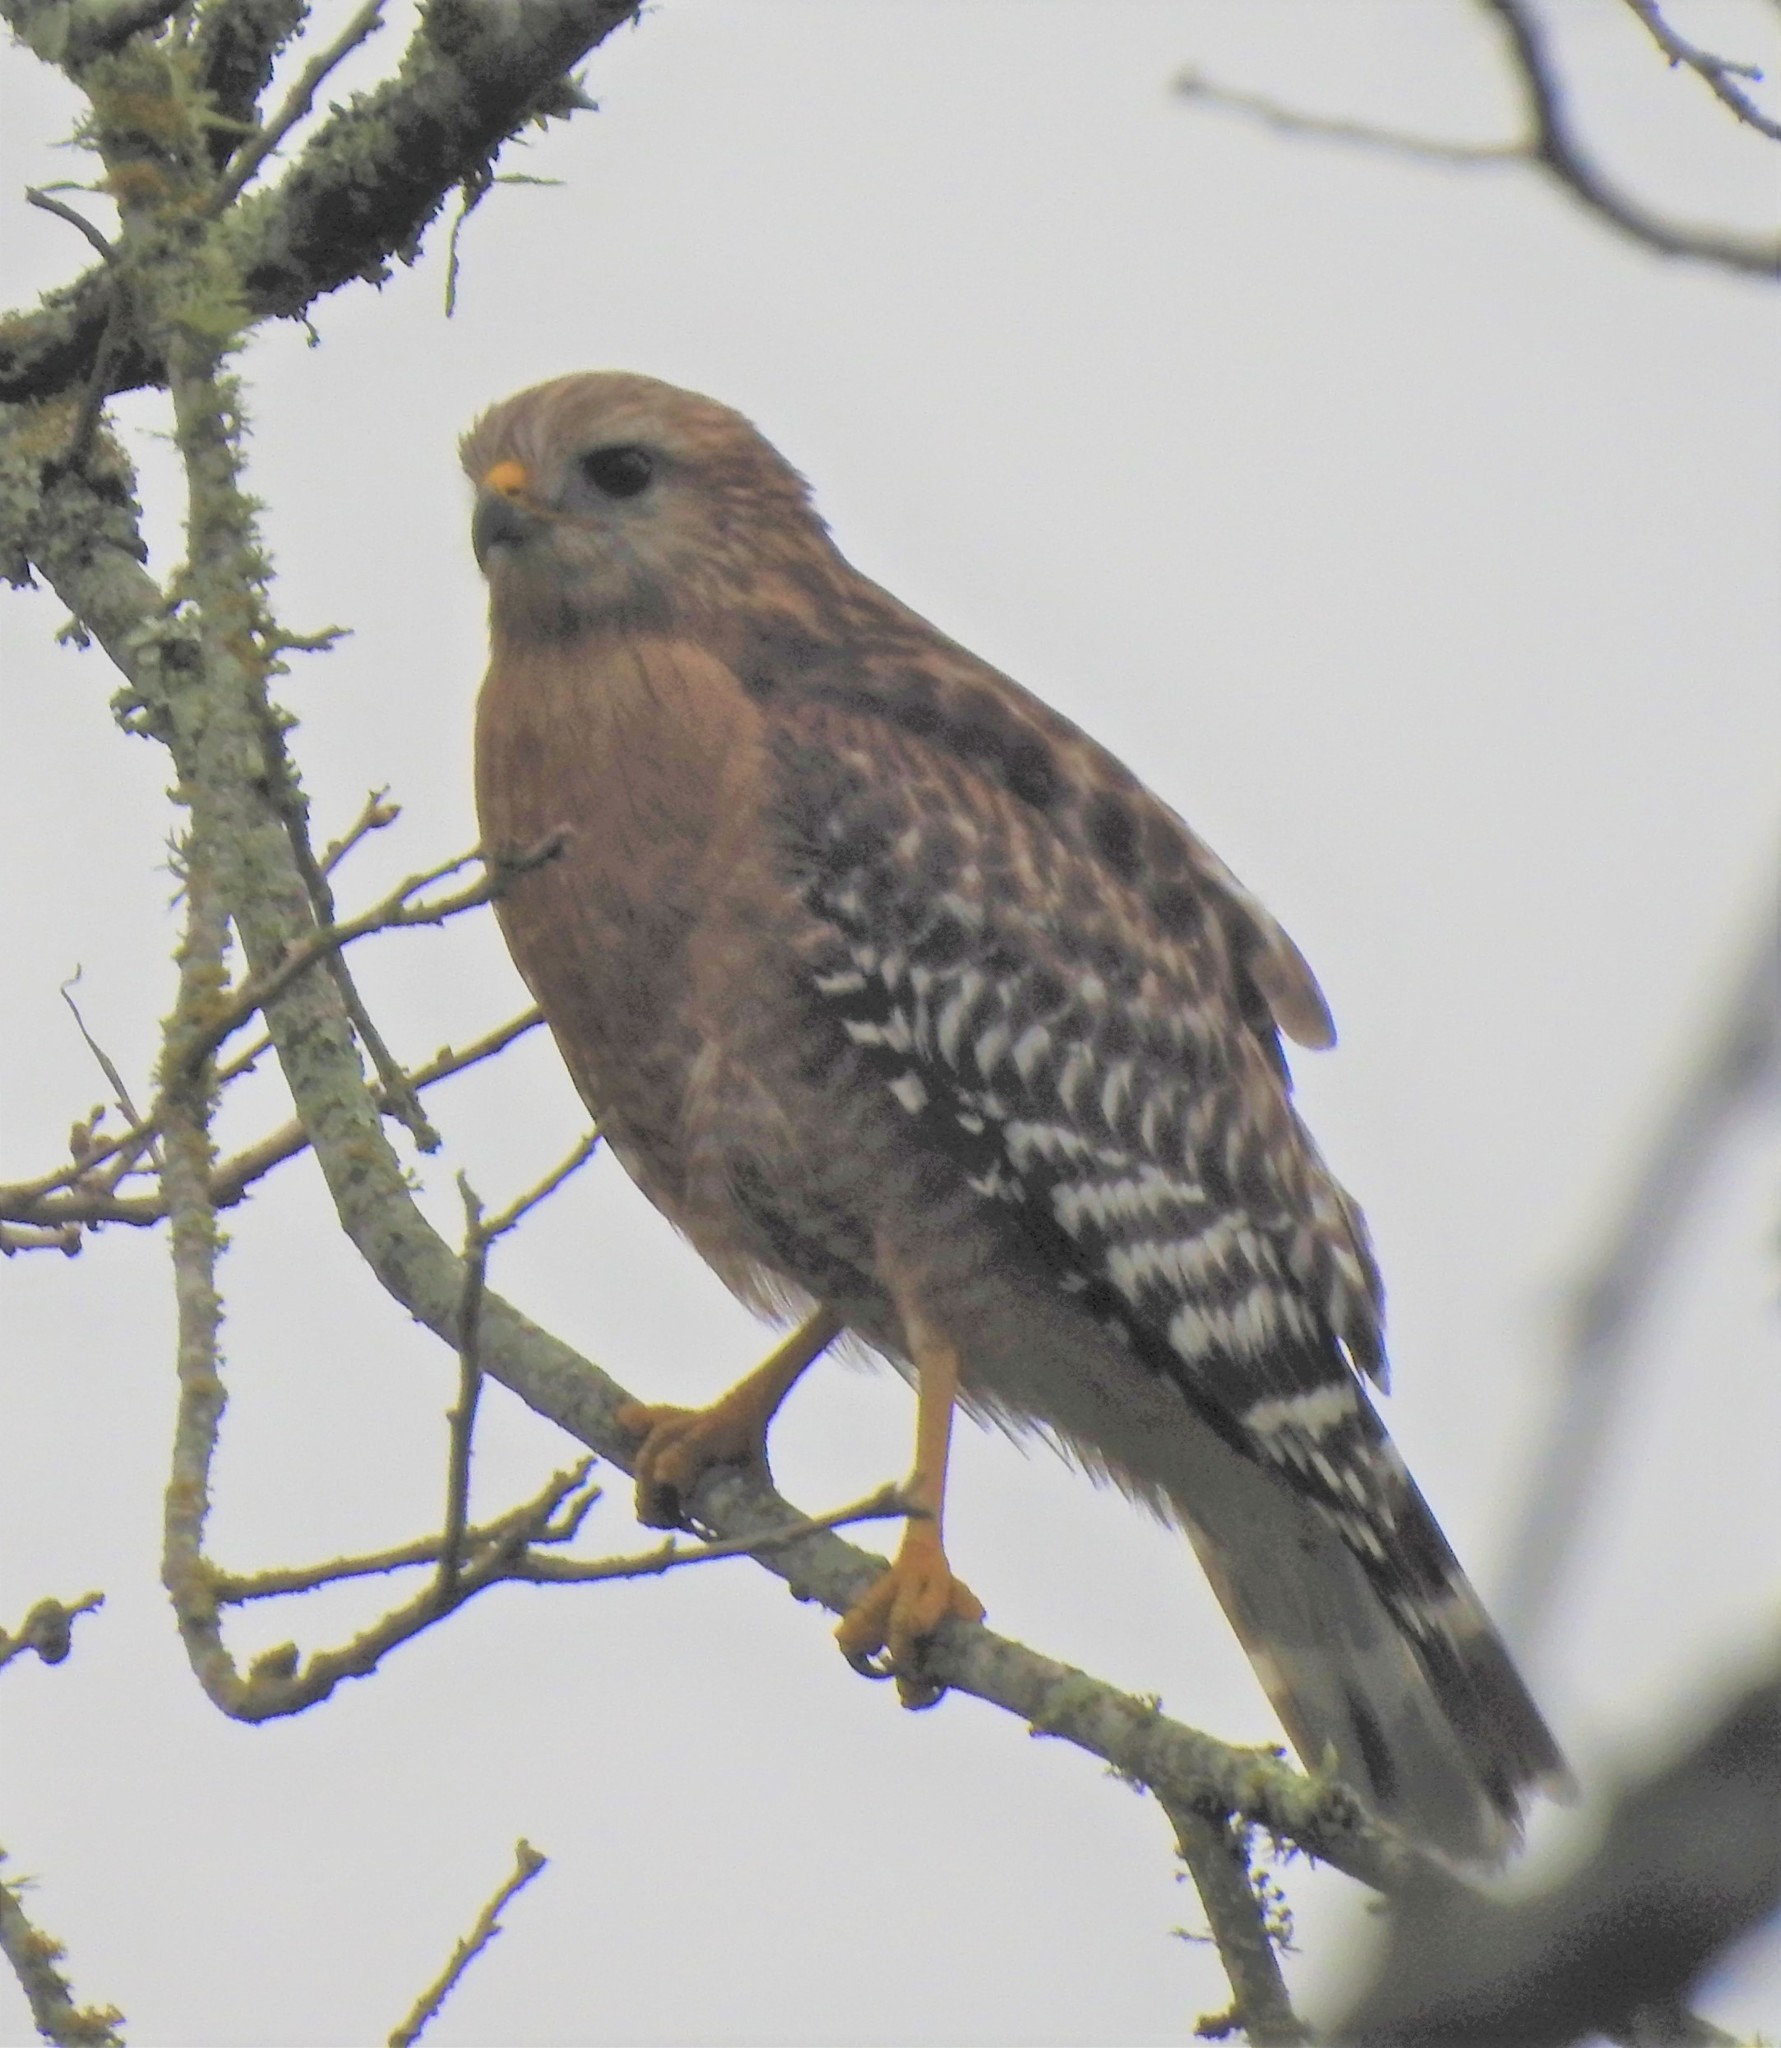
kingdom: Animalia
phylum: Chordata
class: Aves
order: Accipitriformes
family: Accipitridae
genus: Buteo
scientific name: Buteo lineatus
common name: Red-shouldered hawk
